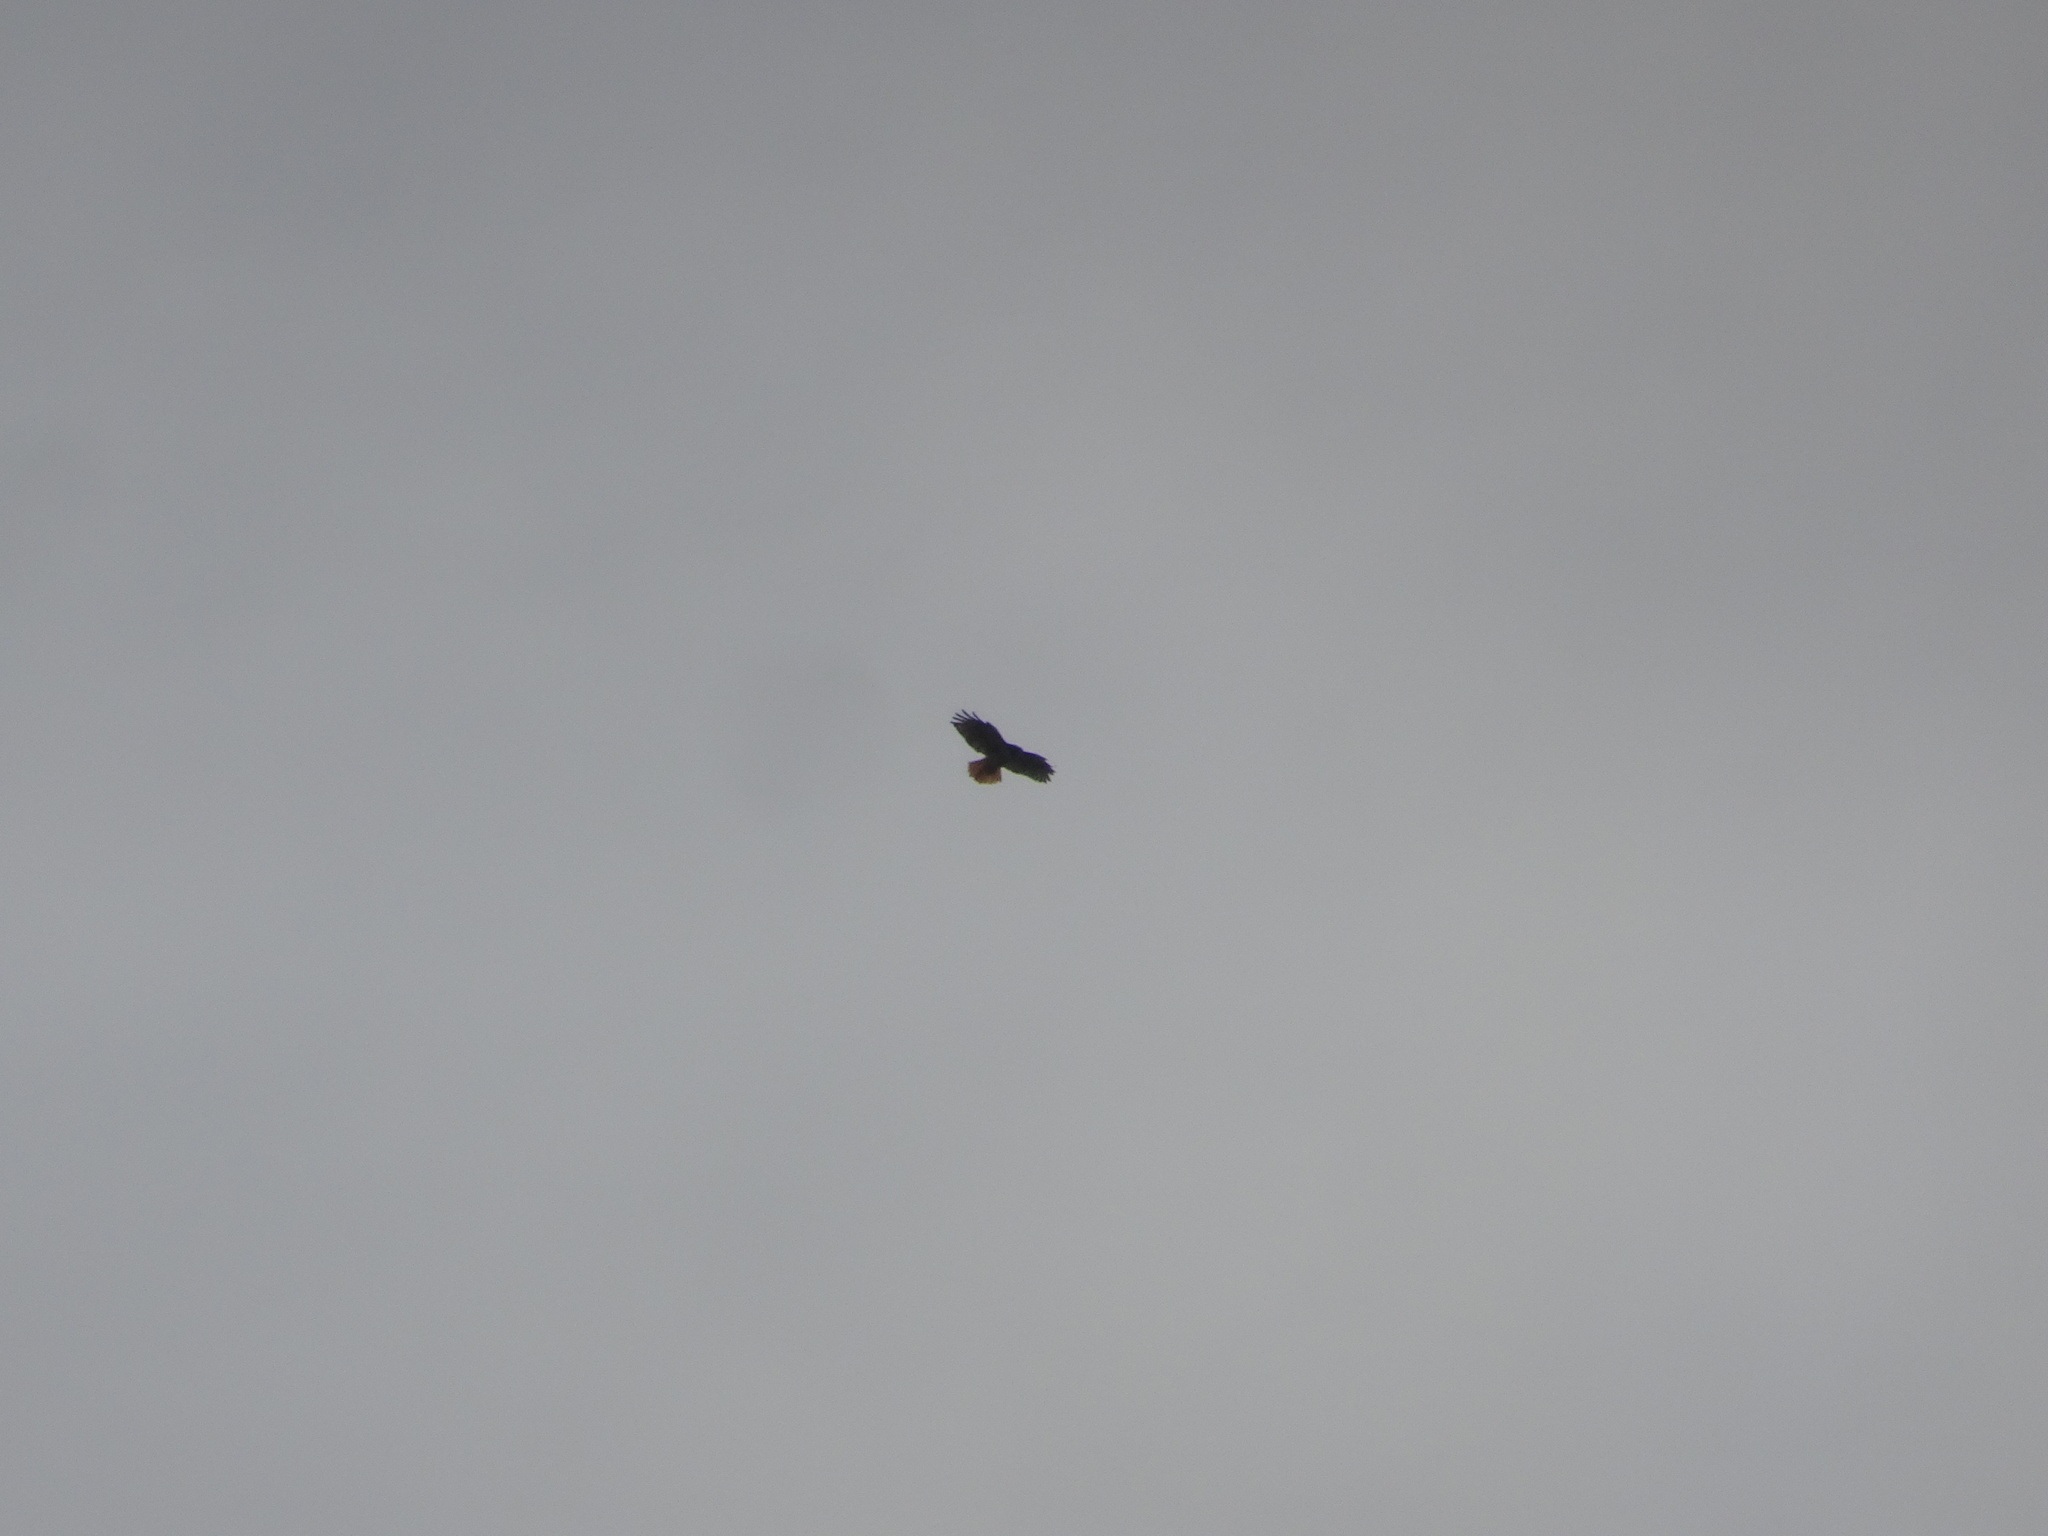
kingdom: Animalia
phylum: Chordata
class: Aves
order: Accipitriformes
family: Accipitridae
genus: Buteo
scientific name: Buteo jamaicensis
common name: Red-tailed hawk
